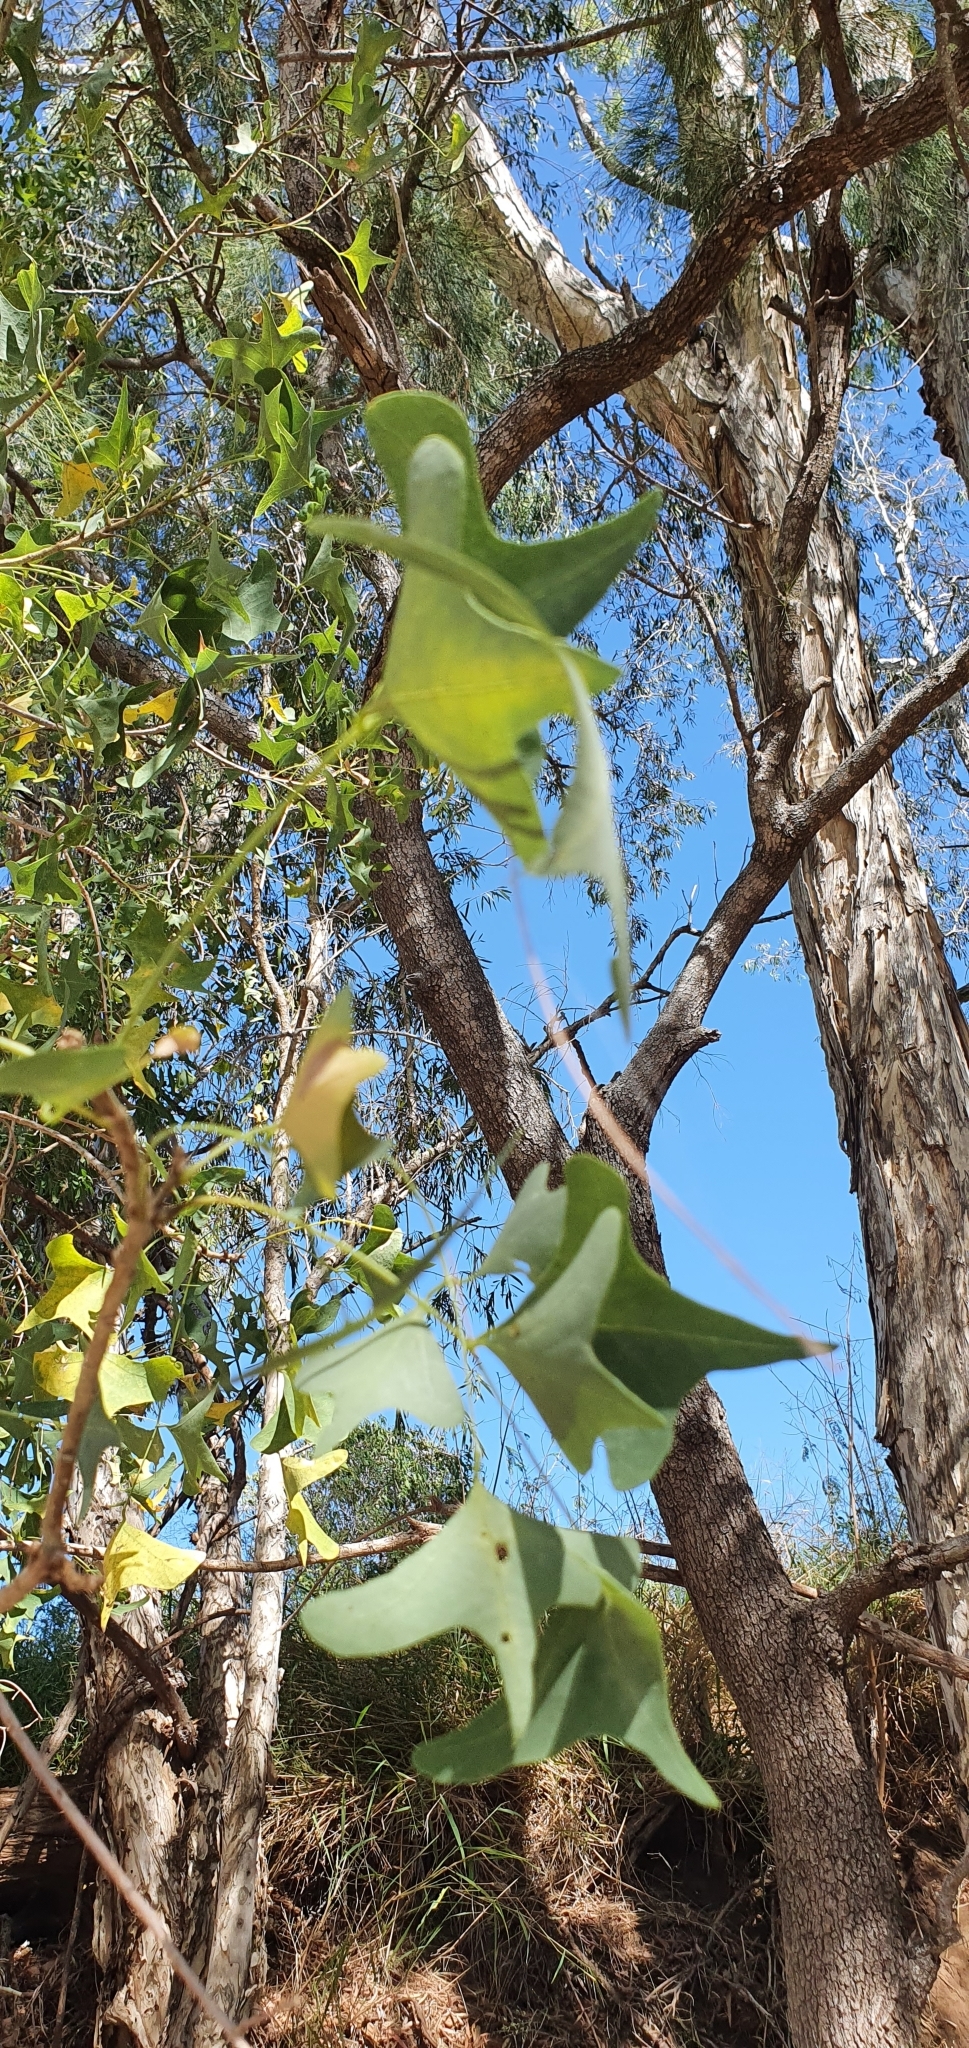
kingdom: Plantae
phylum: Tracheophyta
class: Magnoliopsida
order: Fabales
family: Fabaceae
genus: Erythrina
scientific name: Erythrina vespertilio
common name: Bat-wing coral tree
